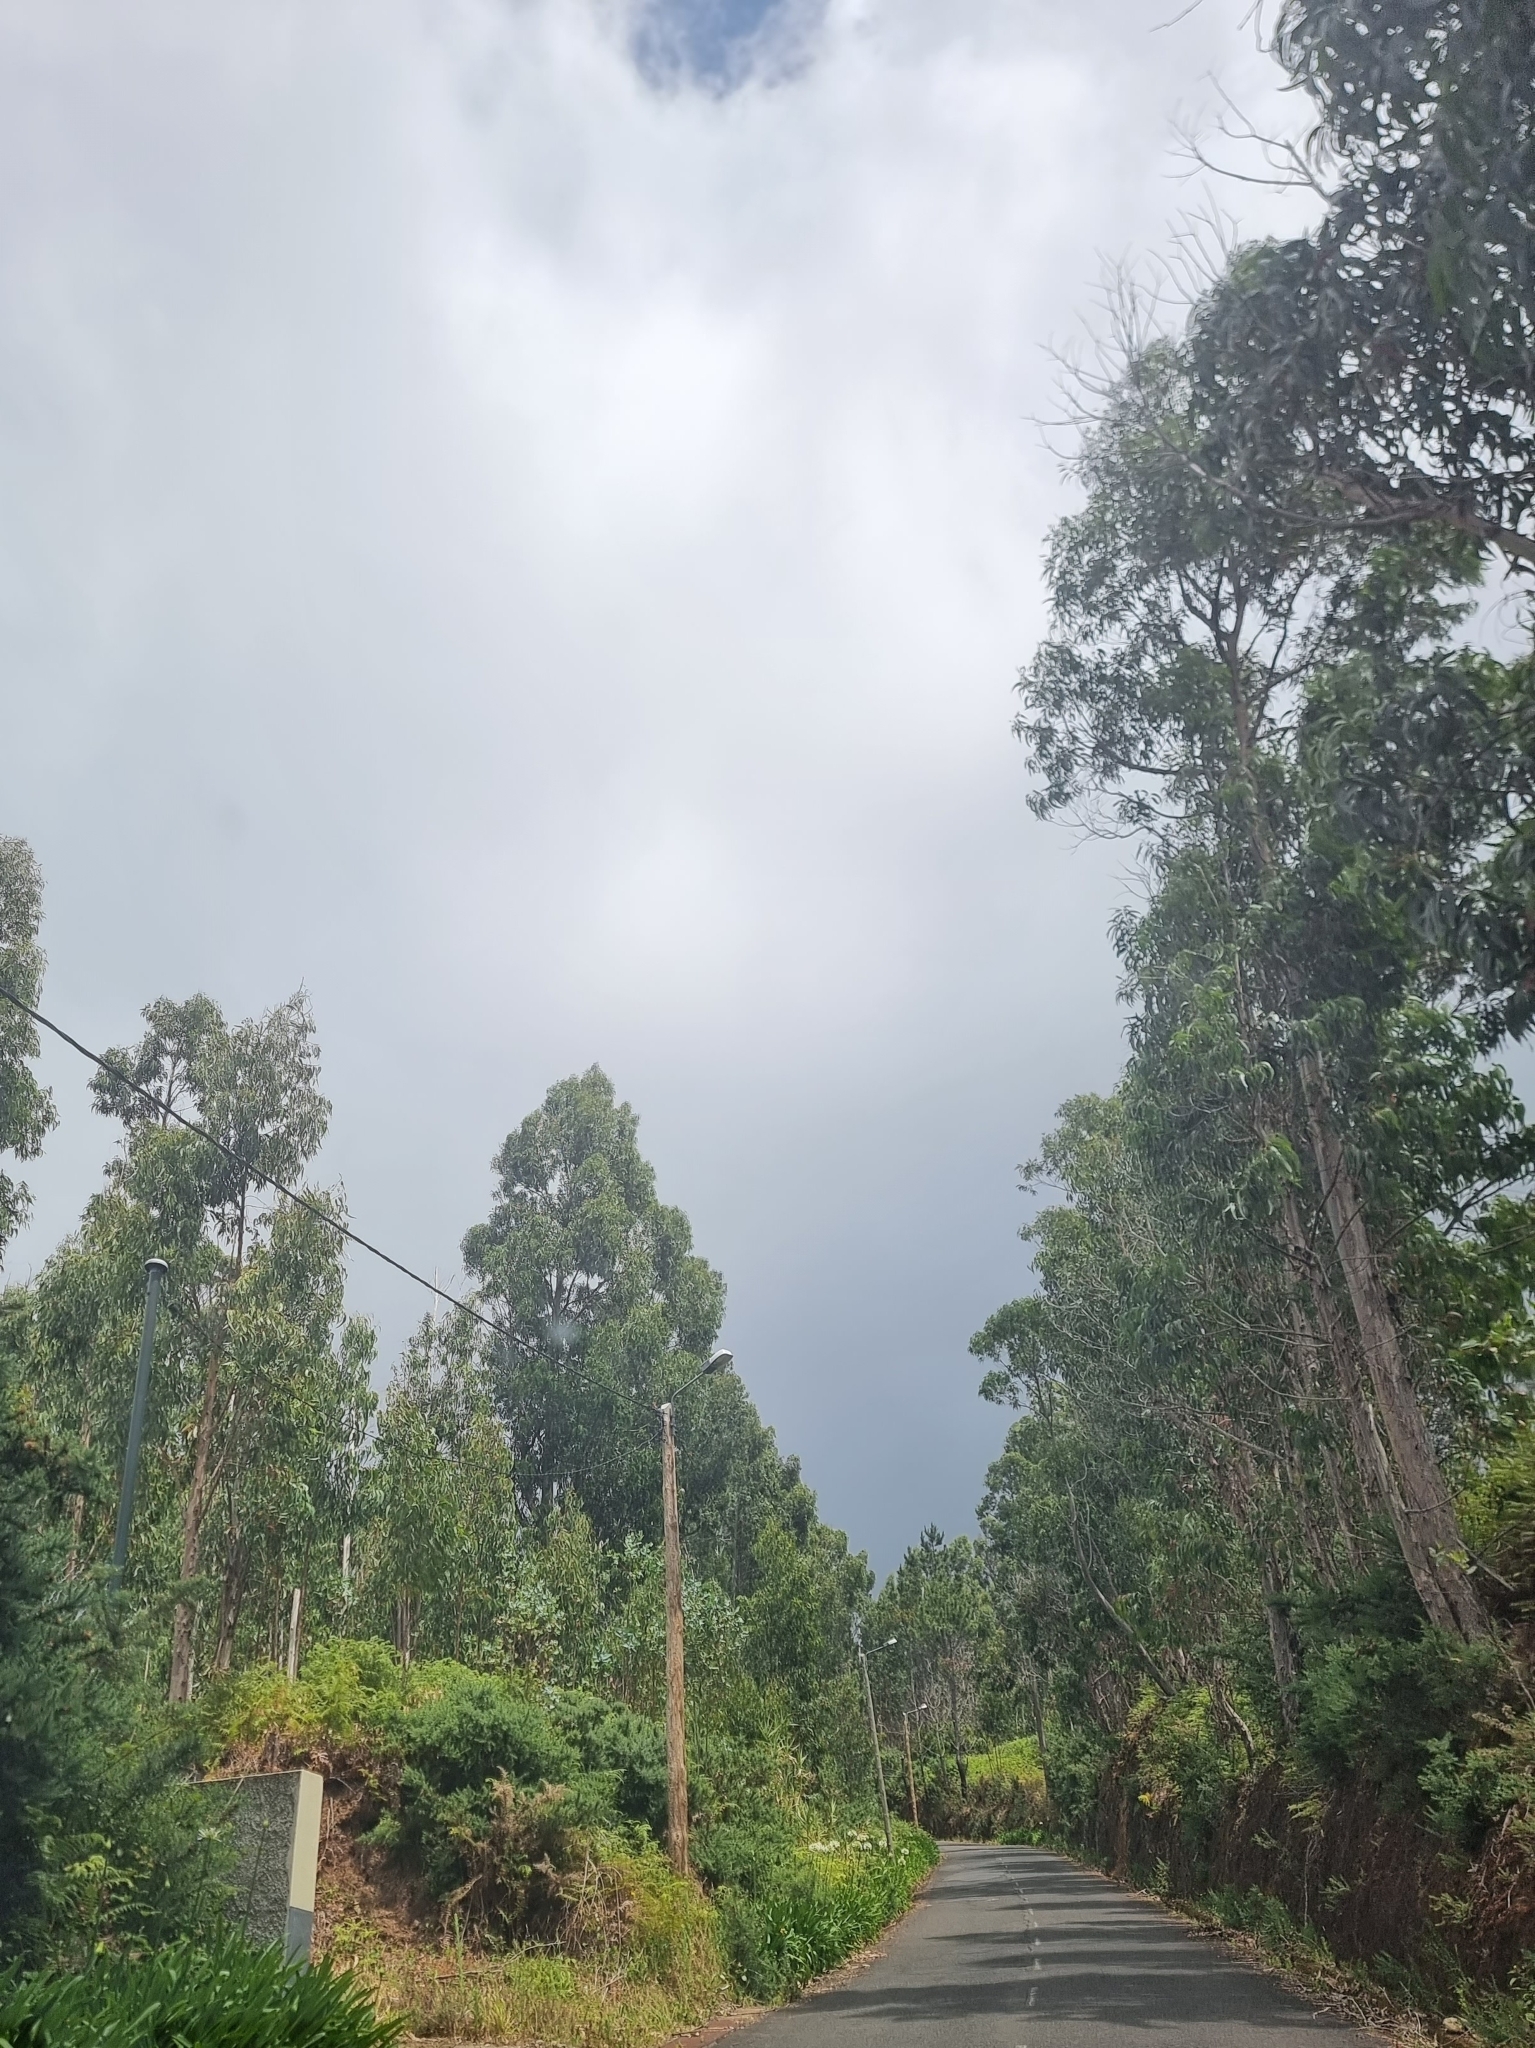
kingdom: Plantae
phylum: Tracheophyta
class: Magnoliopsida
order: Myrtales
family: Myrtaceae
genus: Eucalyptus
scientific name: Eucalyptus globulus
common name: Southern blue-gum
